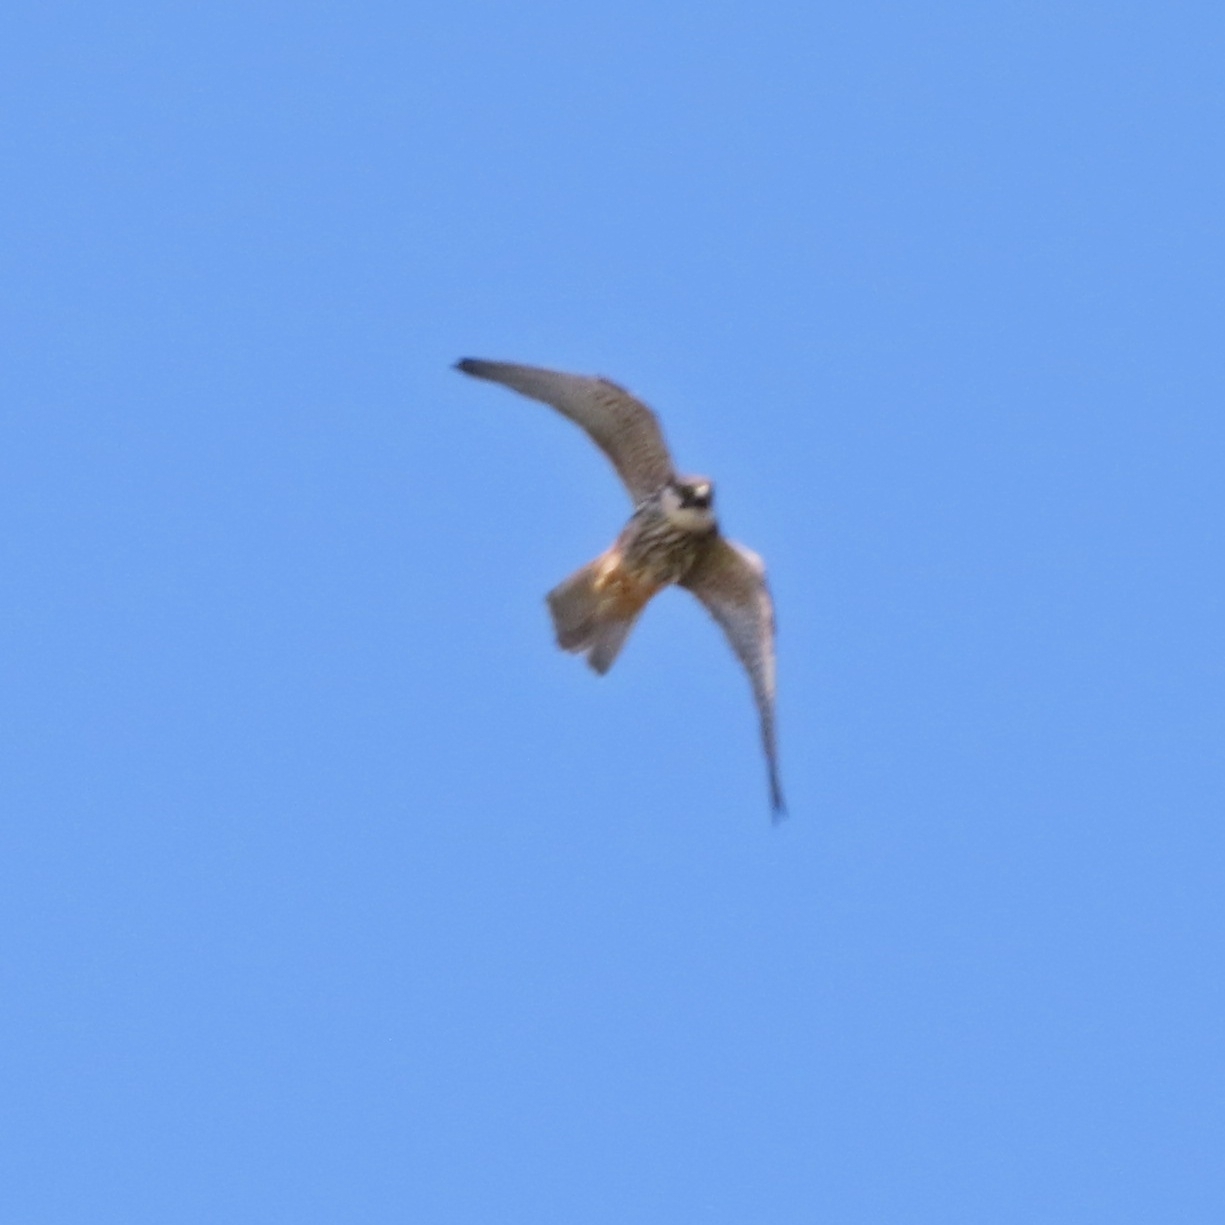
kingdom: Animalia
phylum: Chordata
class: Aves
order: Falconiformes
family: Falconidae
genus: Falco
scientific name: Falco subbuteo
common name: Eurasian hobby
